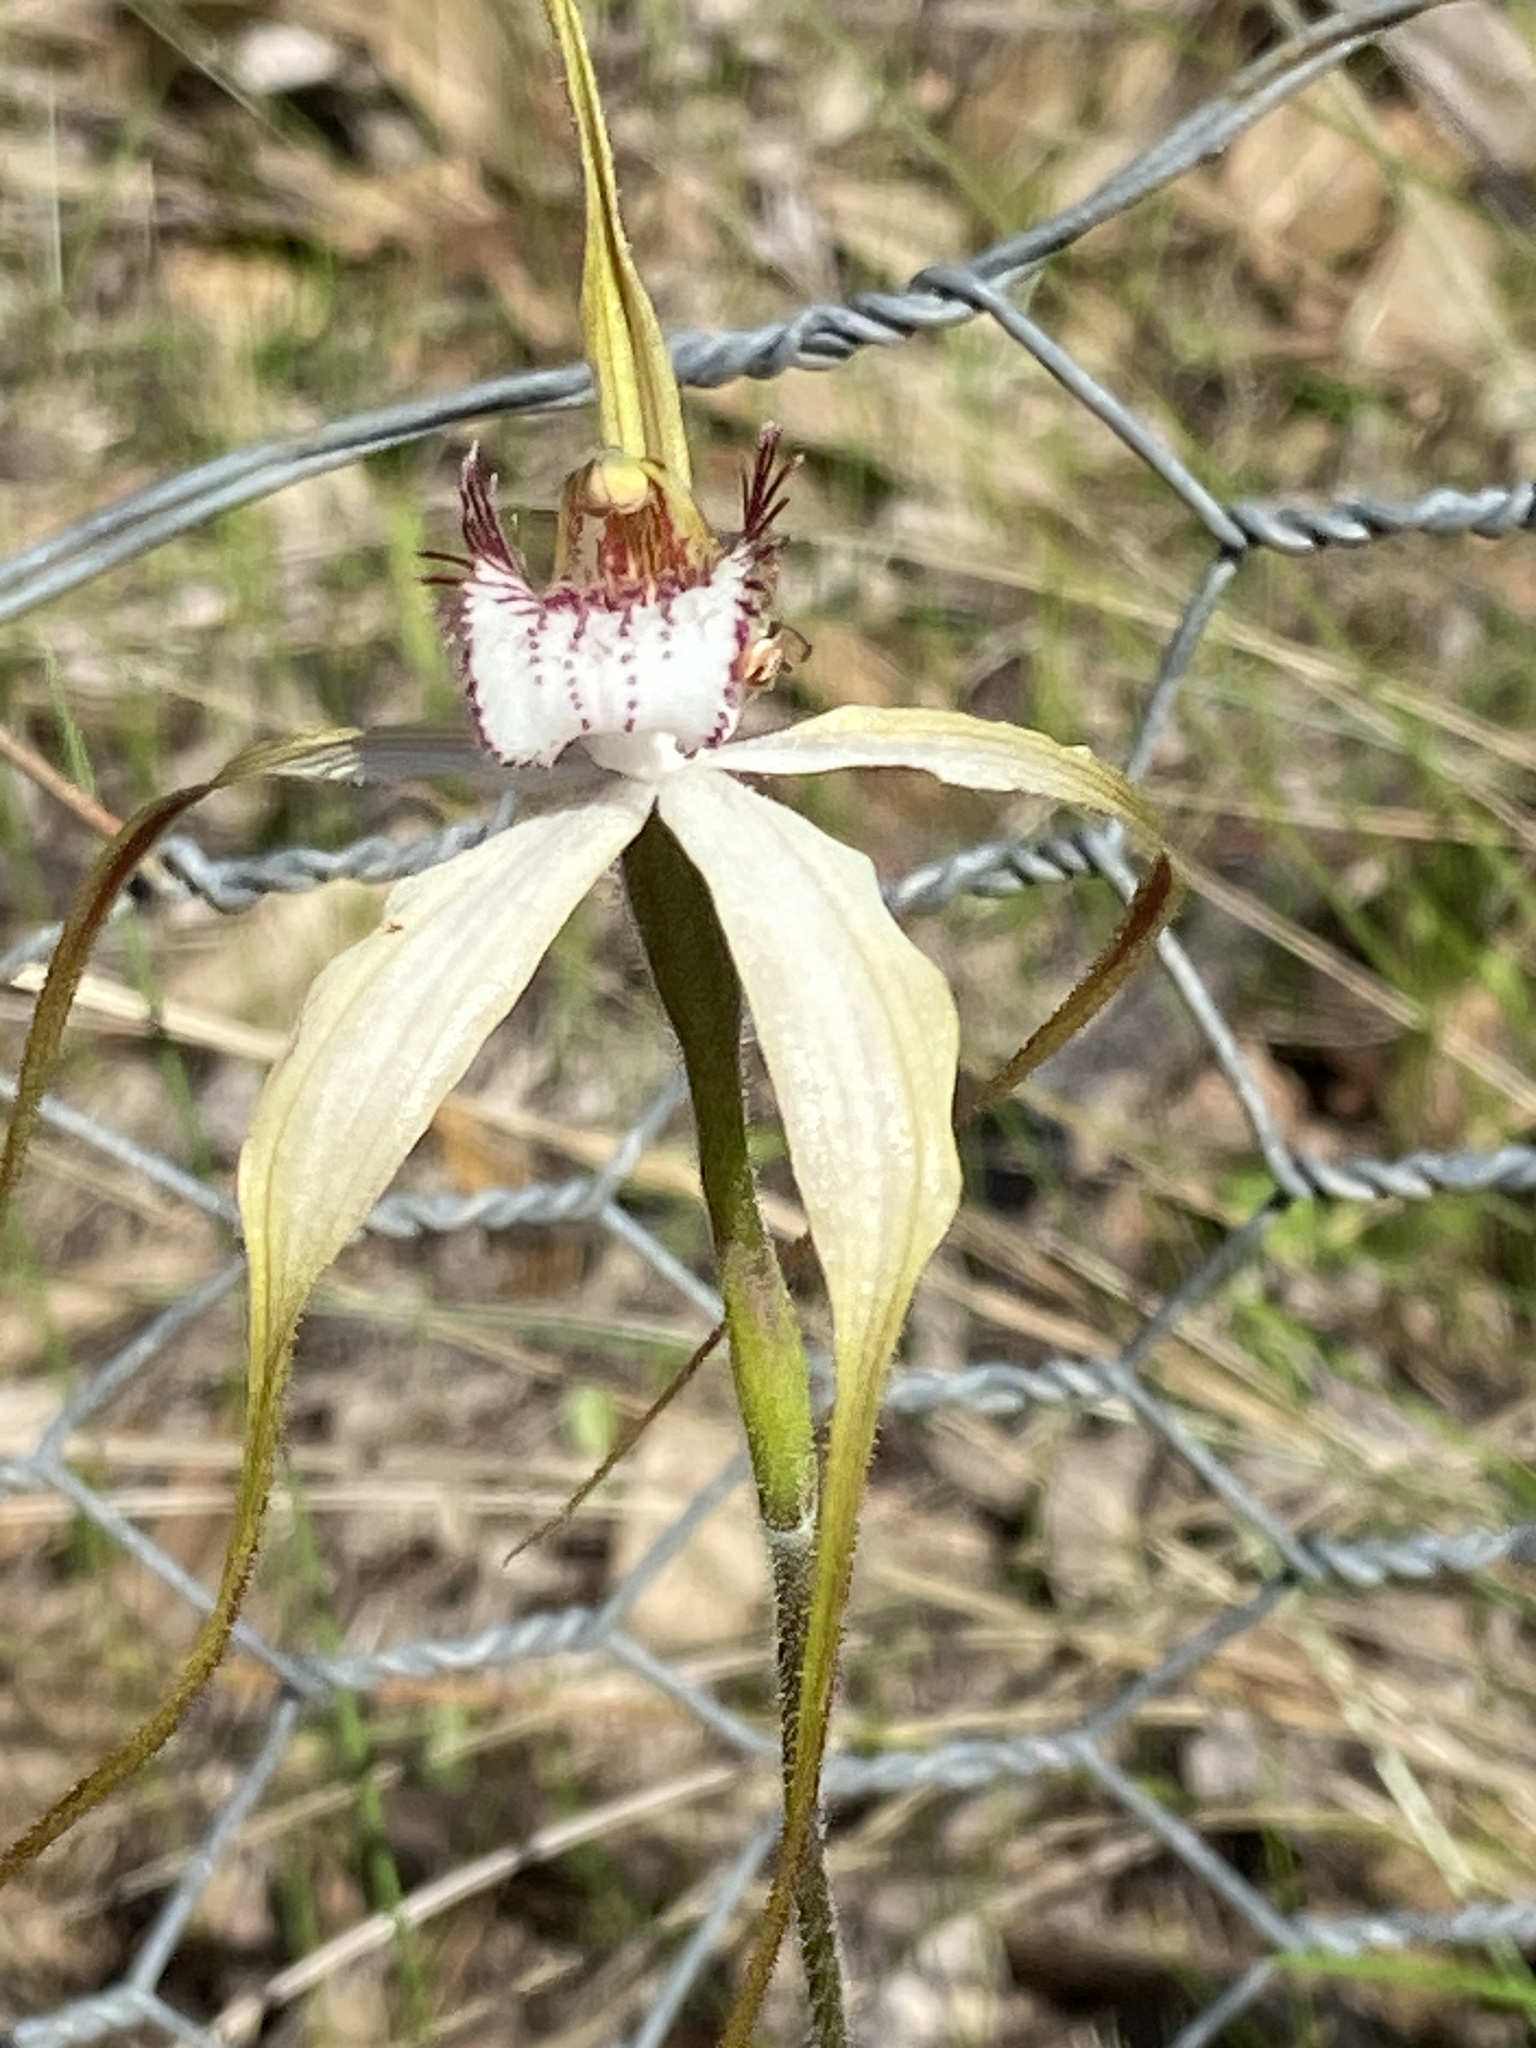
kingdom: Plantae
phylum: Tracheophyta
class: Liliopsida
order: Asparagales
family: Orchidaceae
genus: Caladenia
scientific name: Caladenia longicauda
